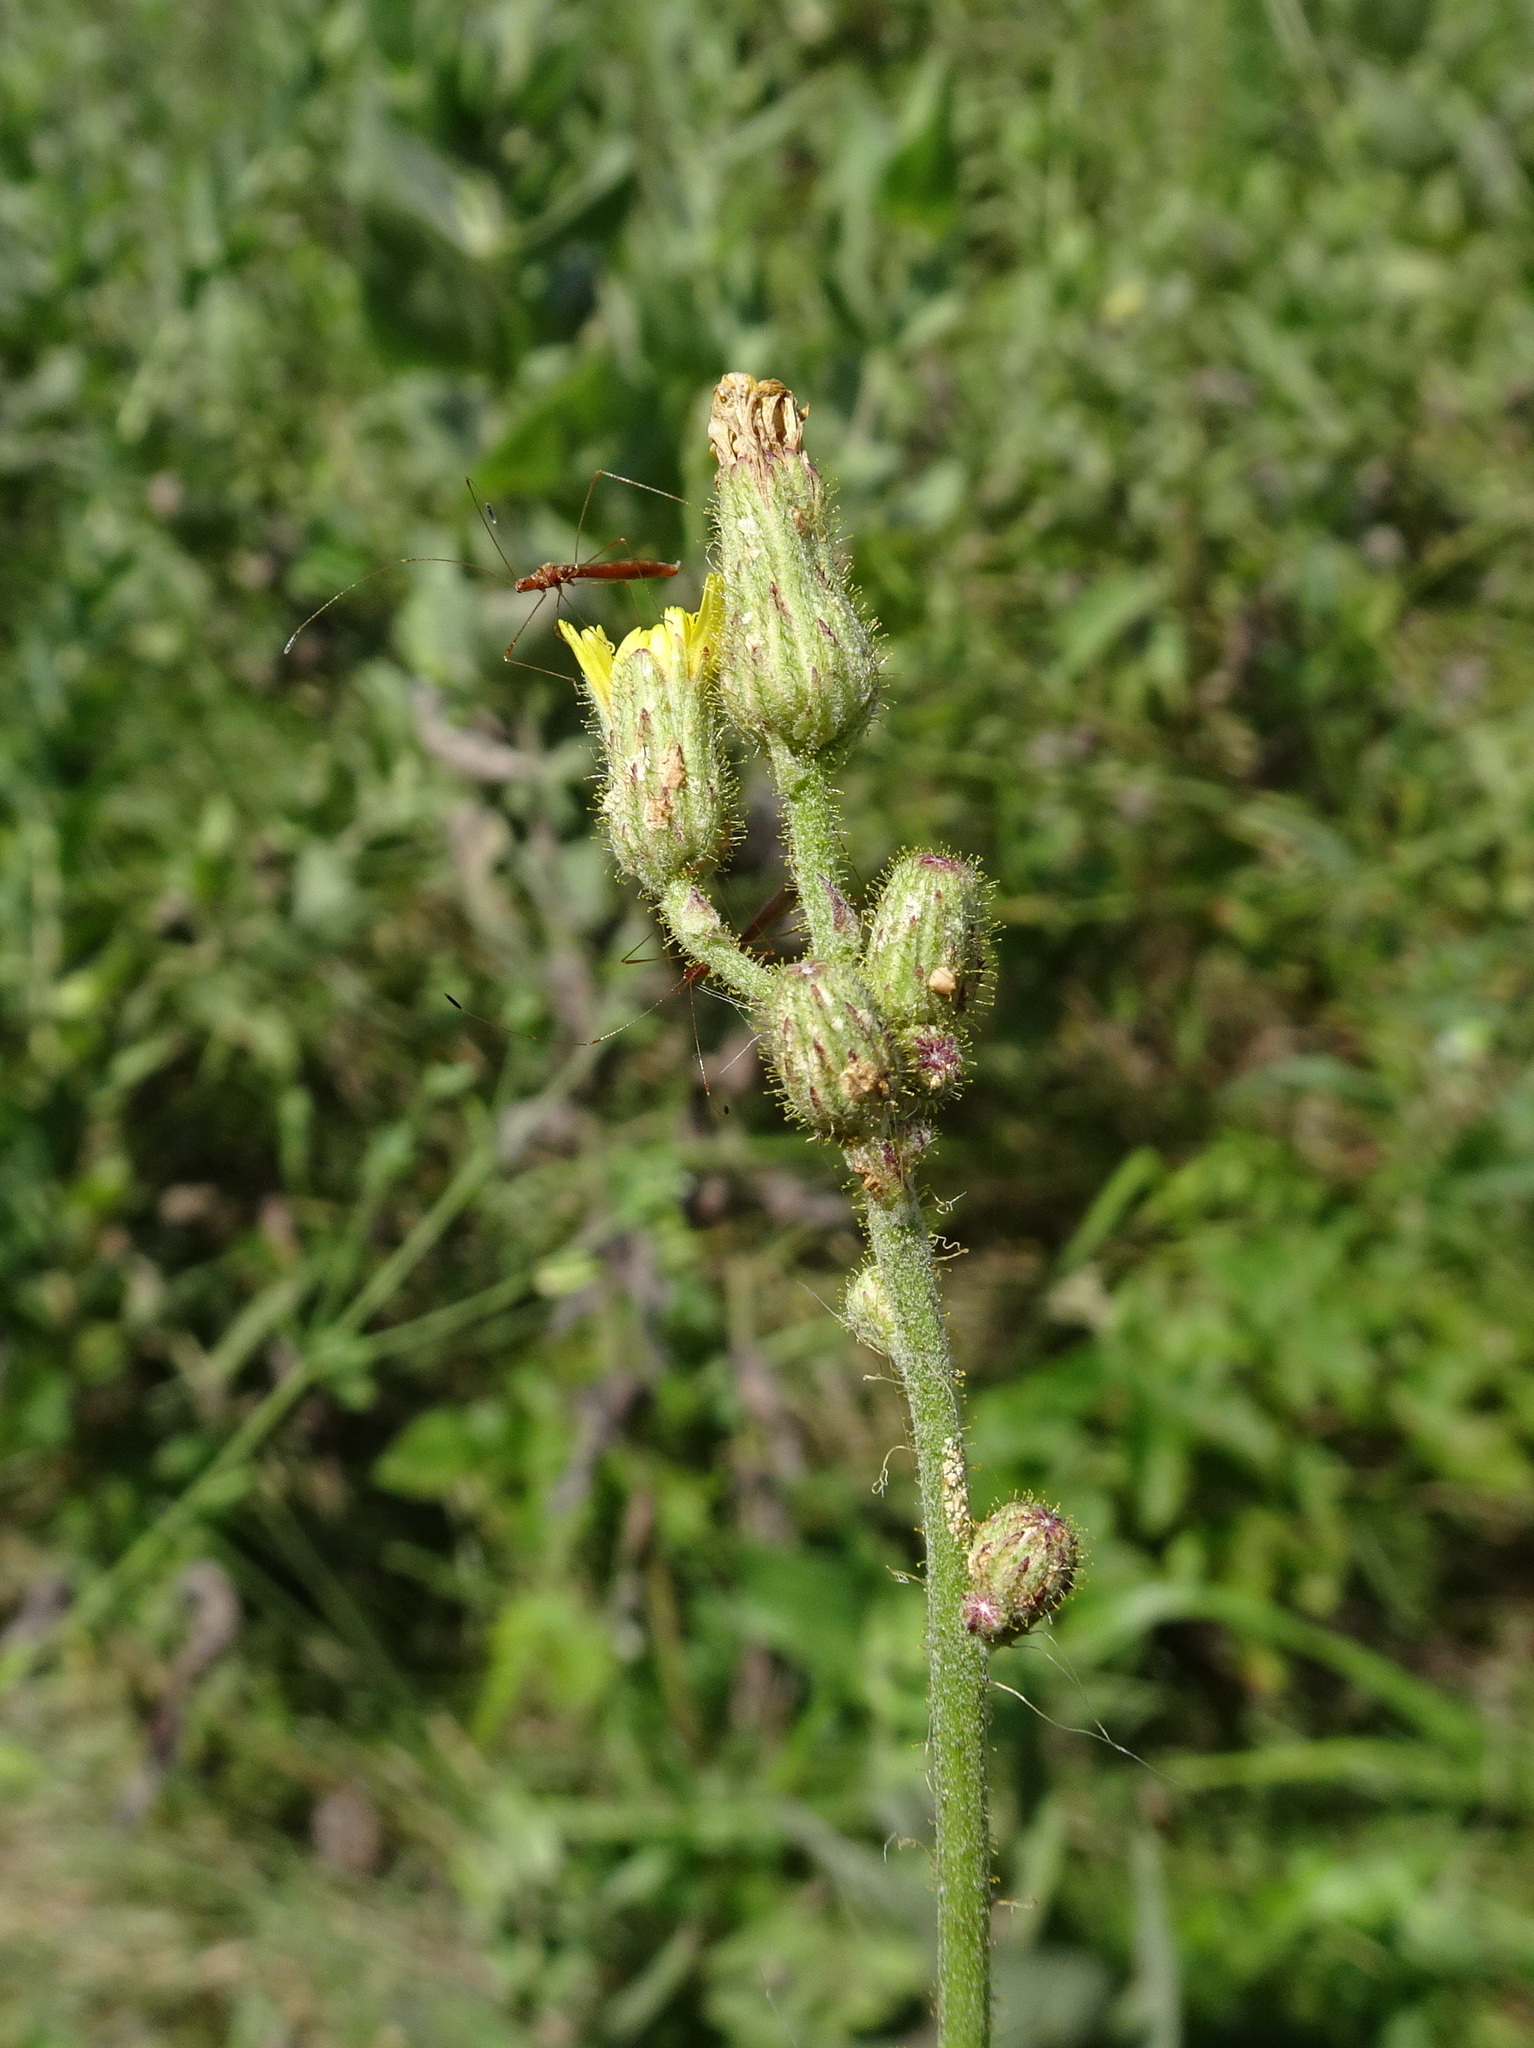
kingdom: Plantae
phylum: Tracheophyta
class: Magnoliopsida
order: Asterales
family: Asteraceae
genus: Hieracium
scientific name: Hieracium longipilum
